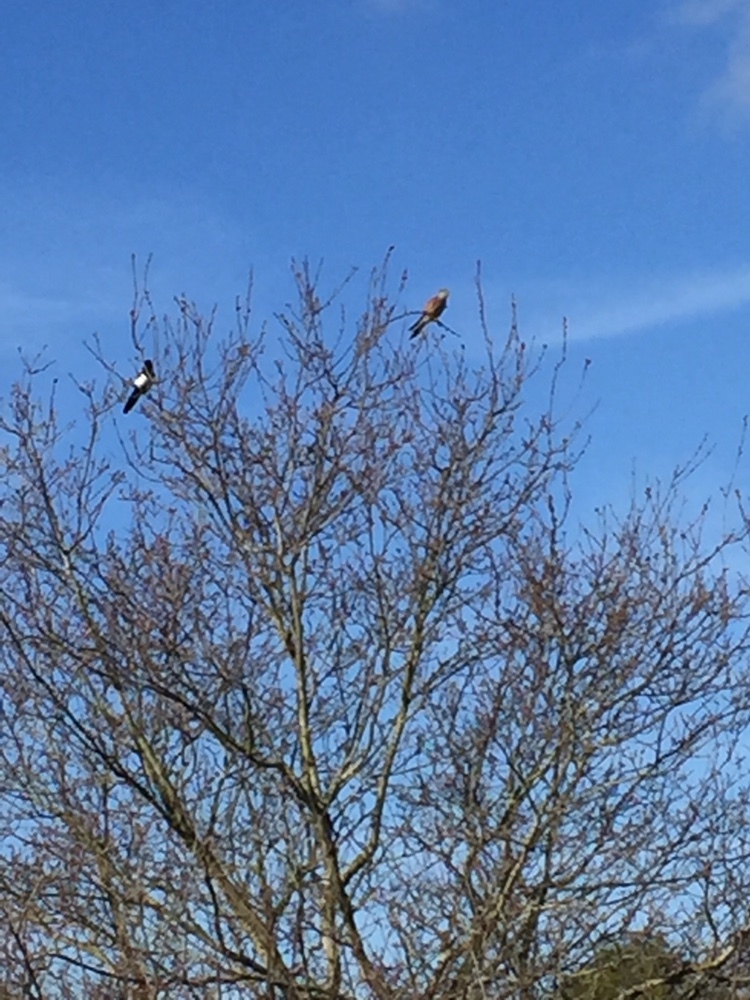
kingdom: Animalia
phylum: Chordata
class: Aves
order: Falconiformes
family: Falconidae
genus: Falco
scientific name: Falco tinnunculus
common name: Common kestrel
